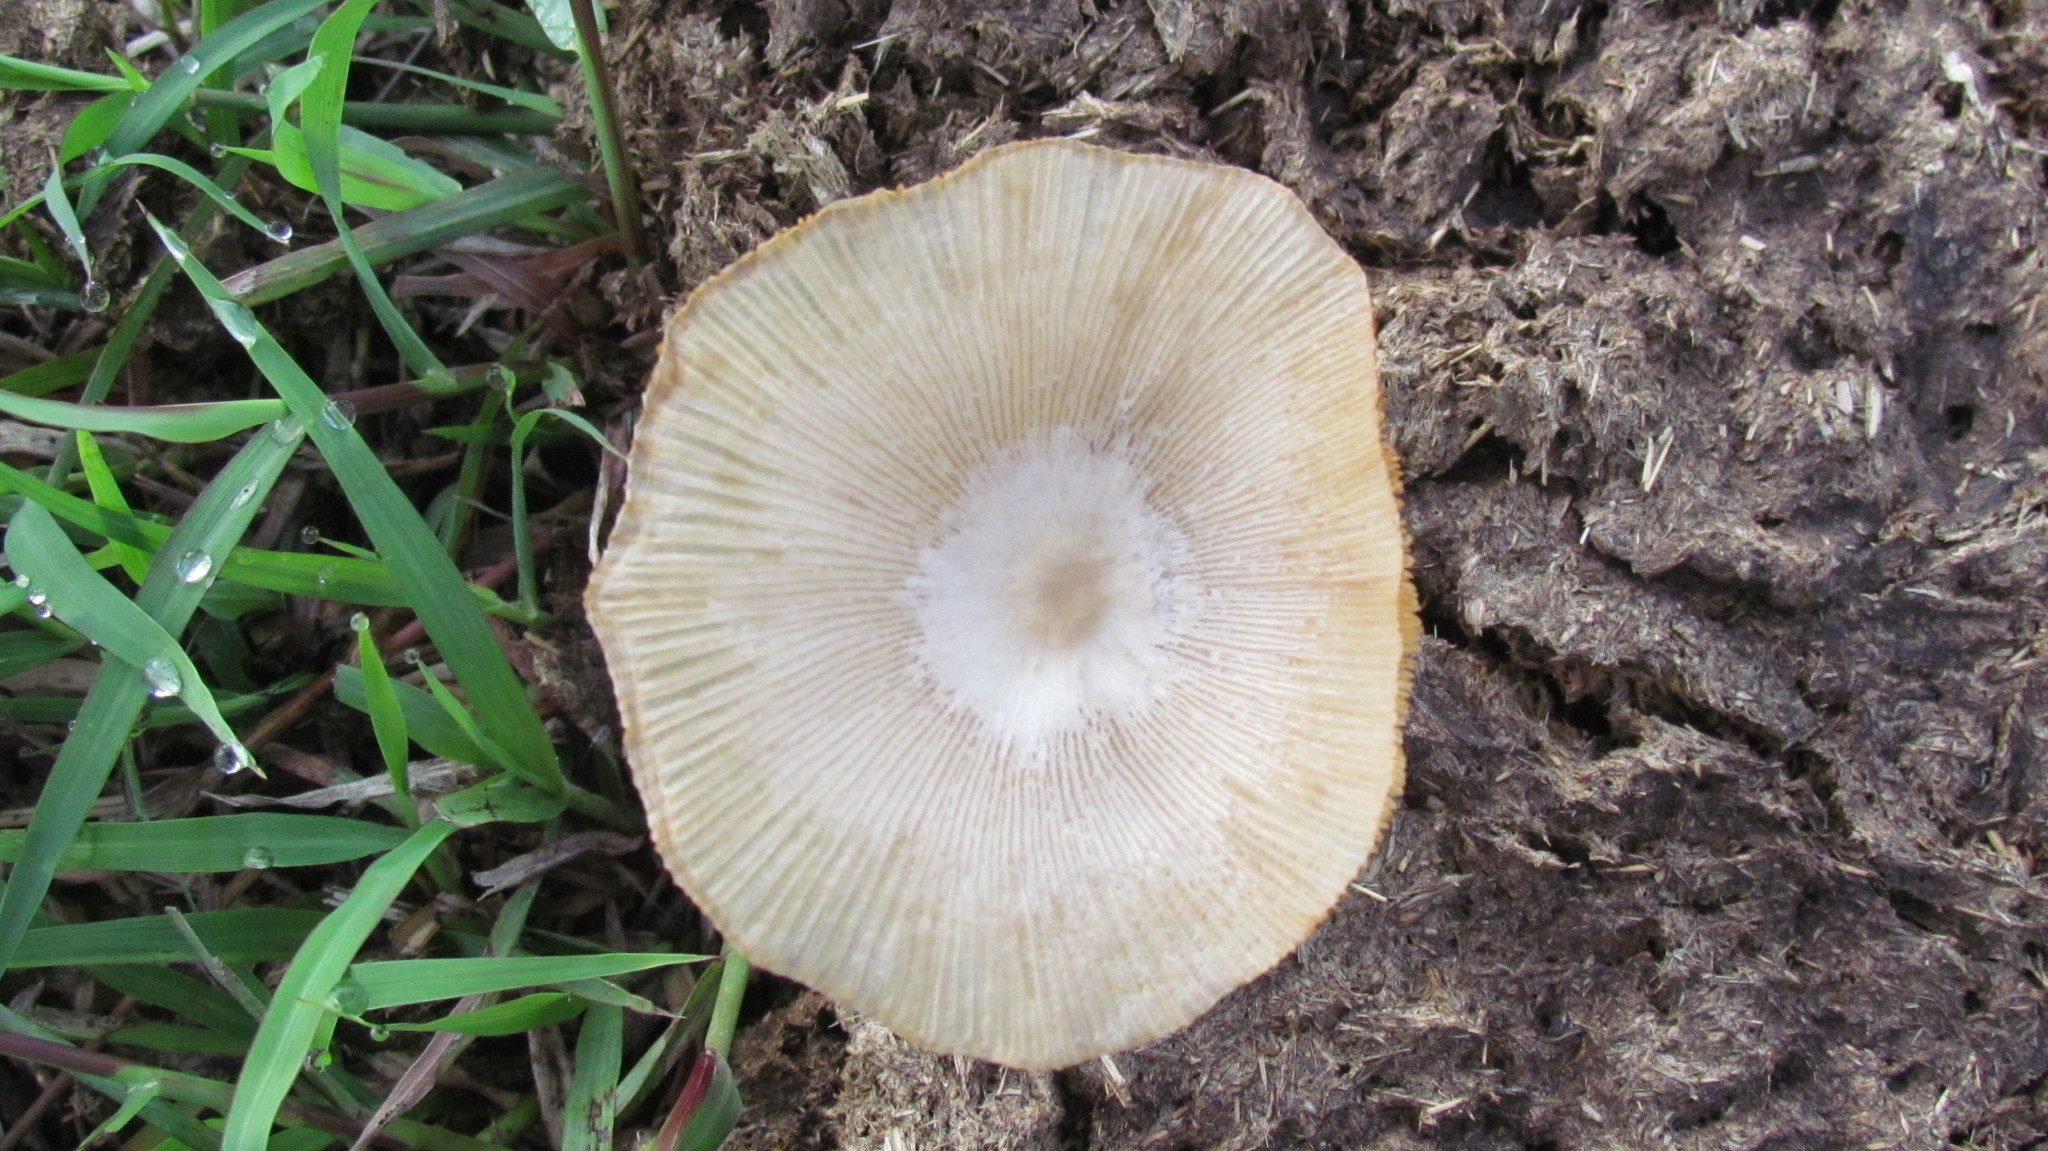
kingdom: Fungi
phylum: Basidiomycota
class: Agaricomycetes
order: Agaricales
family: Bolbitiaceae
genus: Bolbitius
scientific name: Bolbitius coprophilus
